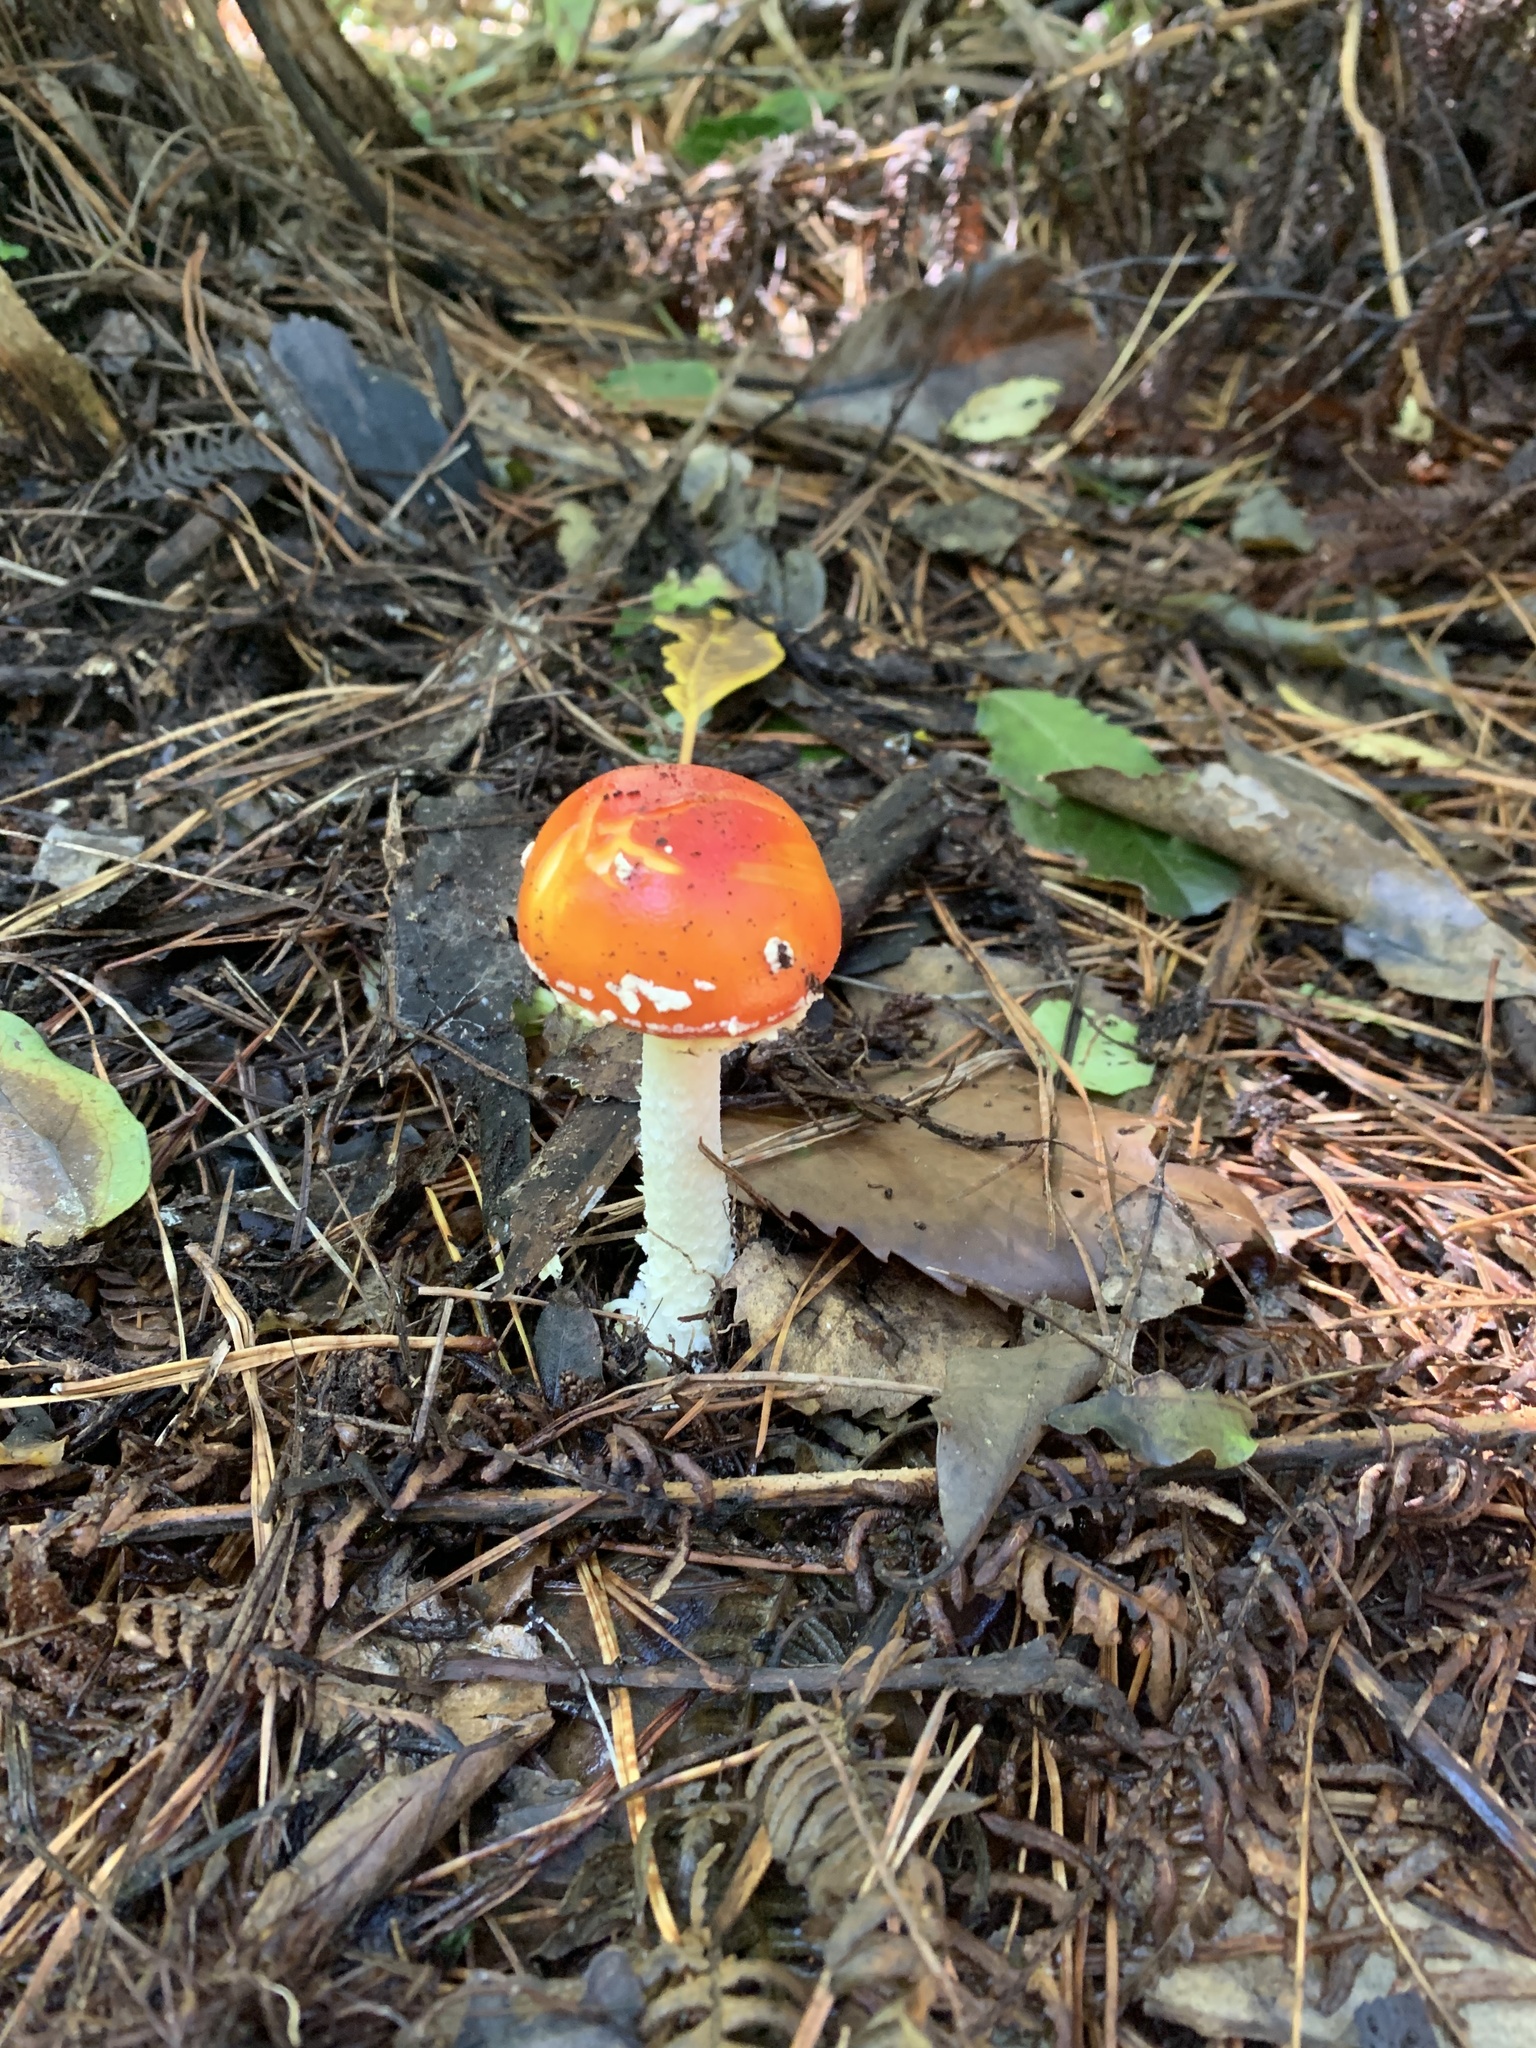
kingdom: Fungi
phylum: Basidiomycota
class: Agaricomycetes
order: Agaricales
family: Amanitaceae
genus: Amanita
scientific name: Amanita muscaria
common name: Fly agaric
